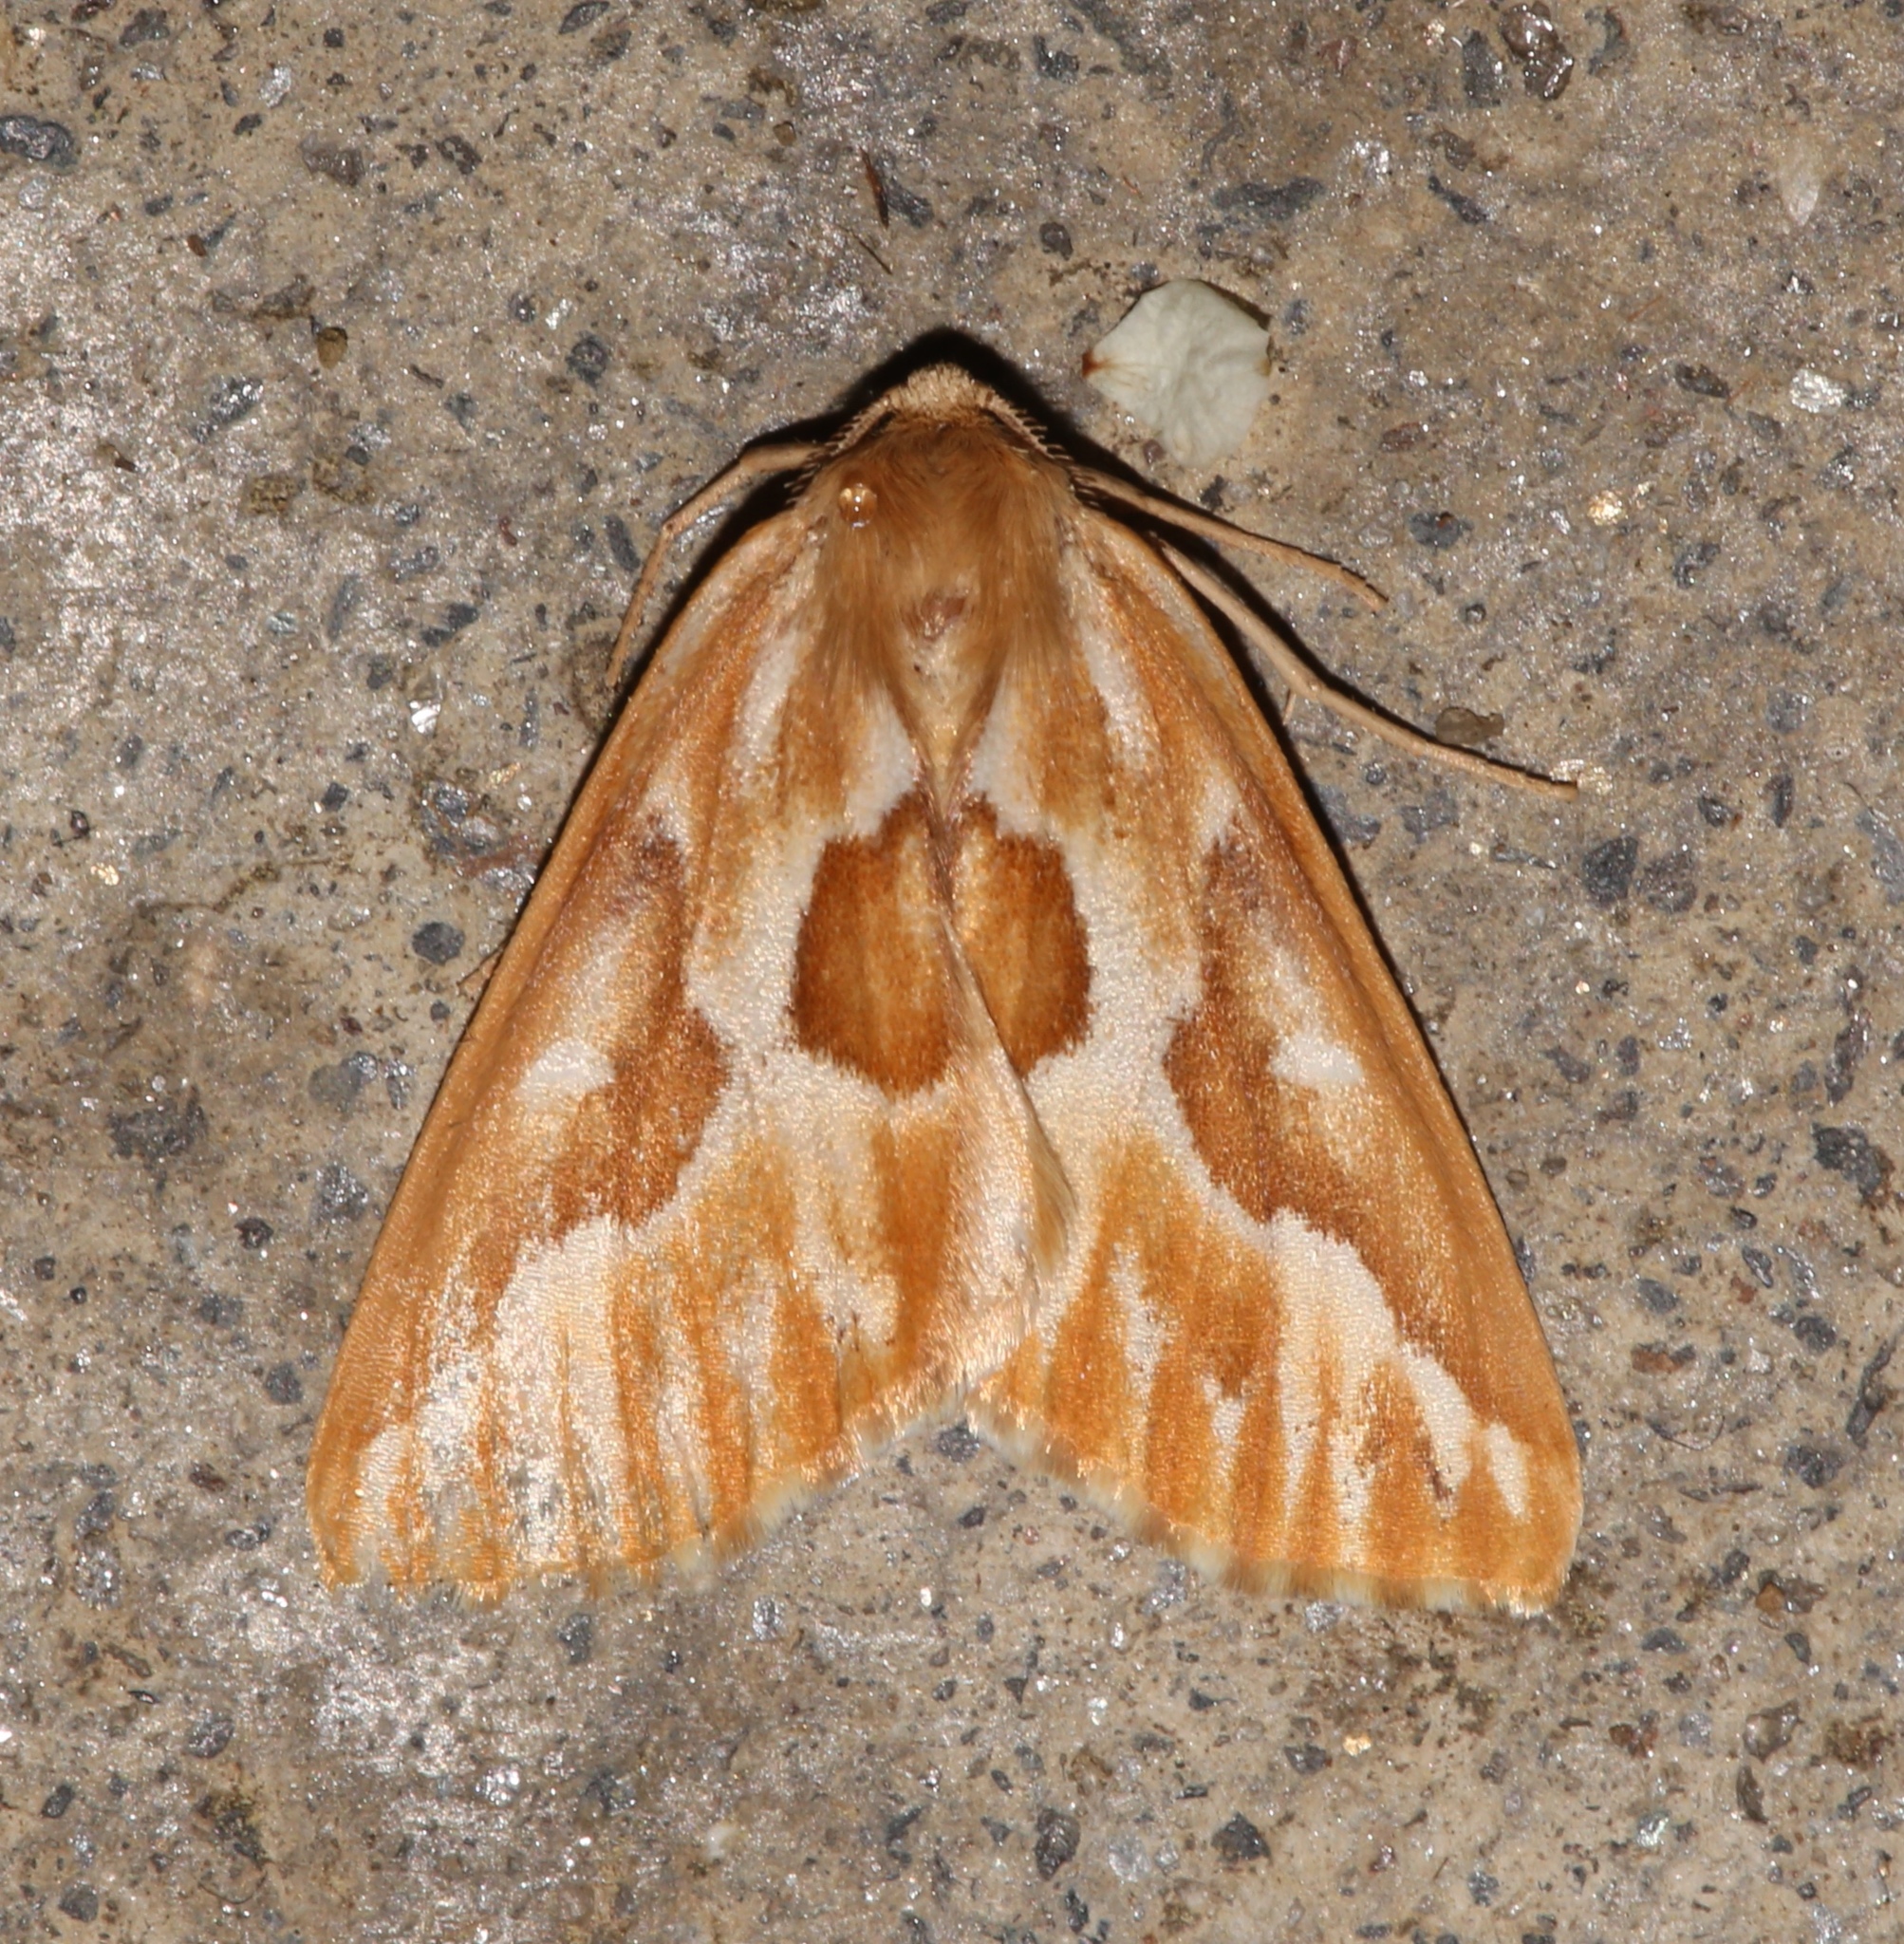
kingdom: Animalia
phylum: Arthropoda
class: Insecta
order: Lepidoptera
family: Geometridae
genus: Caripeta
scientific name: Caripeta piniata
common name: Northern pine looper moth
